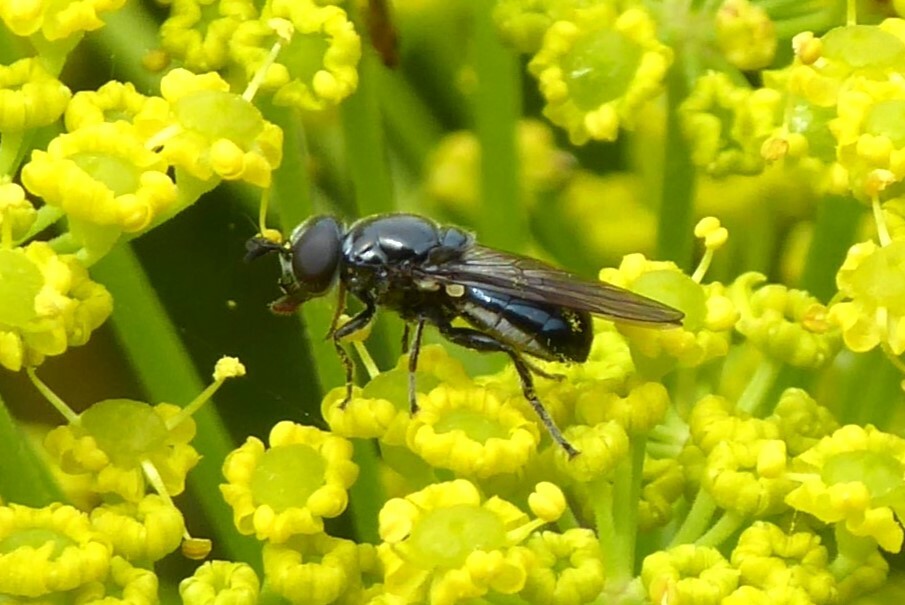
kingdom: Animalia
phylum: Arthropoda
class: Insecta
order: Diptera
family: Syrphidae
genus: Psilota
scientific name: Psilota decessum
